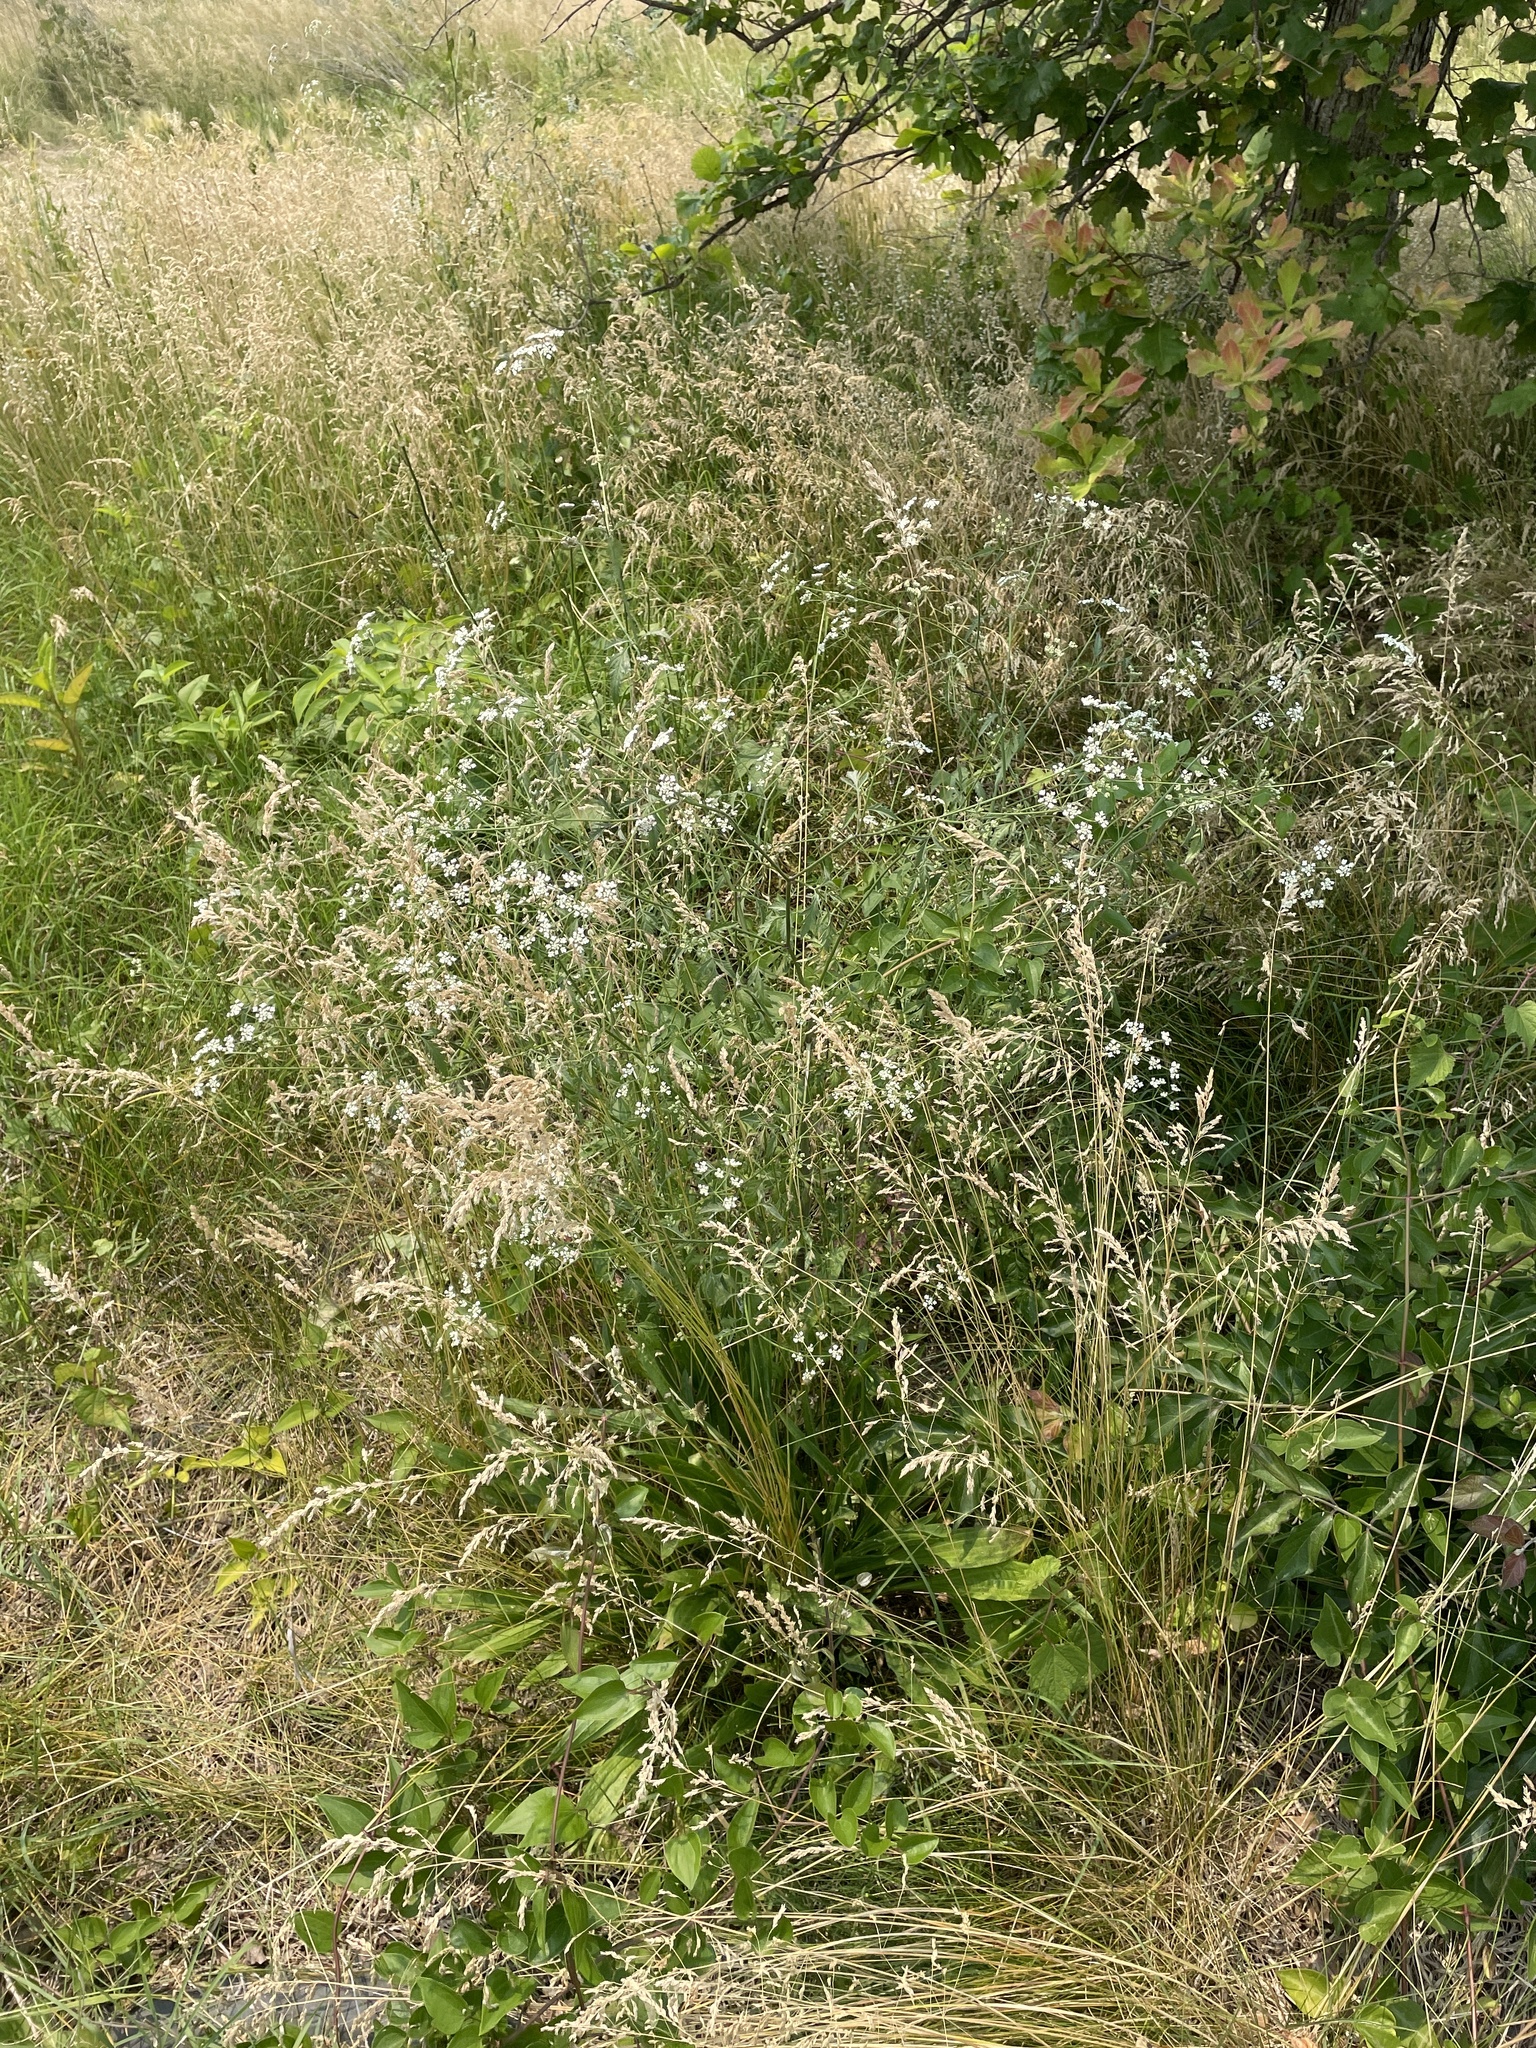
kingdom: Plantae
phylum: Tracheophyta
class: Magnoliopsida
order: Apiales
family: Apiaceae
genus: Torilis
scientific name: Torilis arvensis
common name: Spreading hedge-parsley
